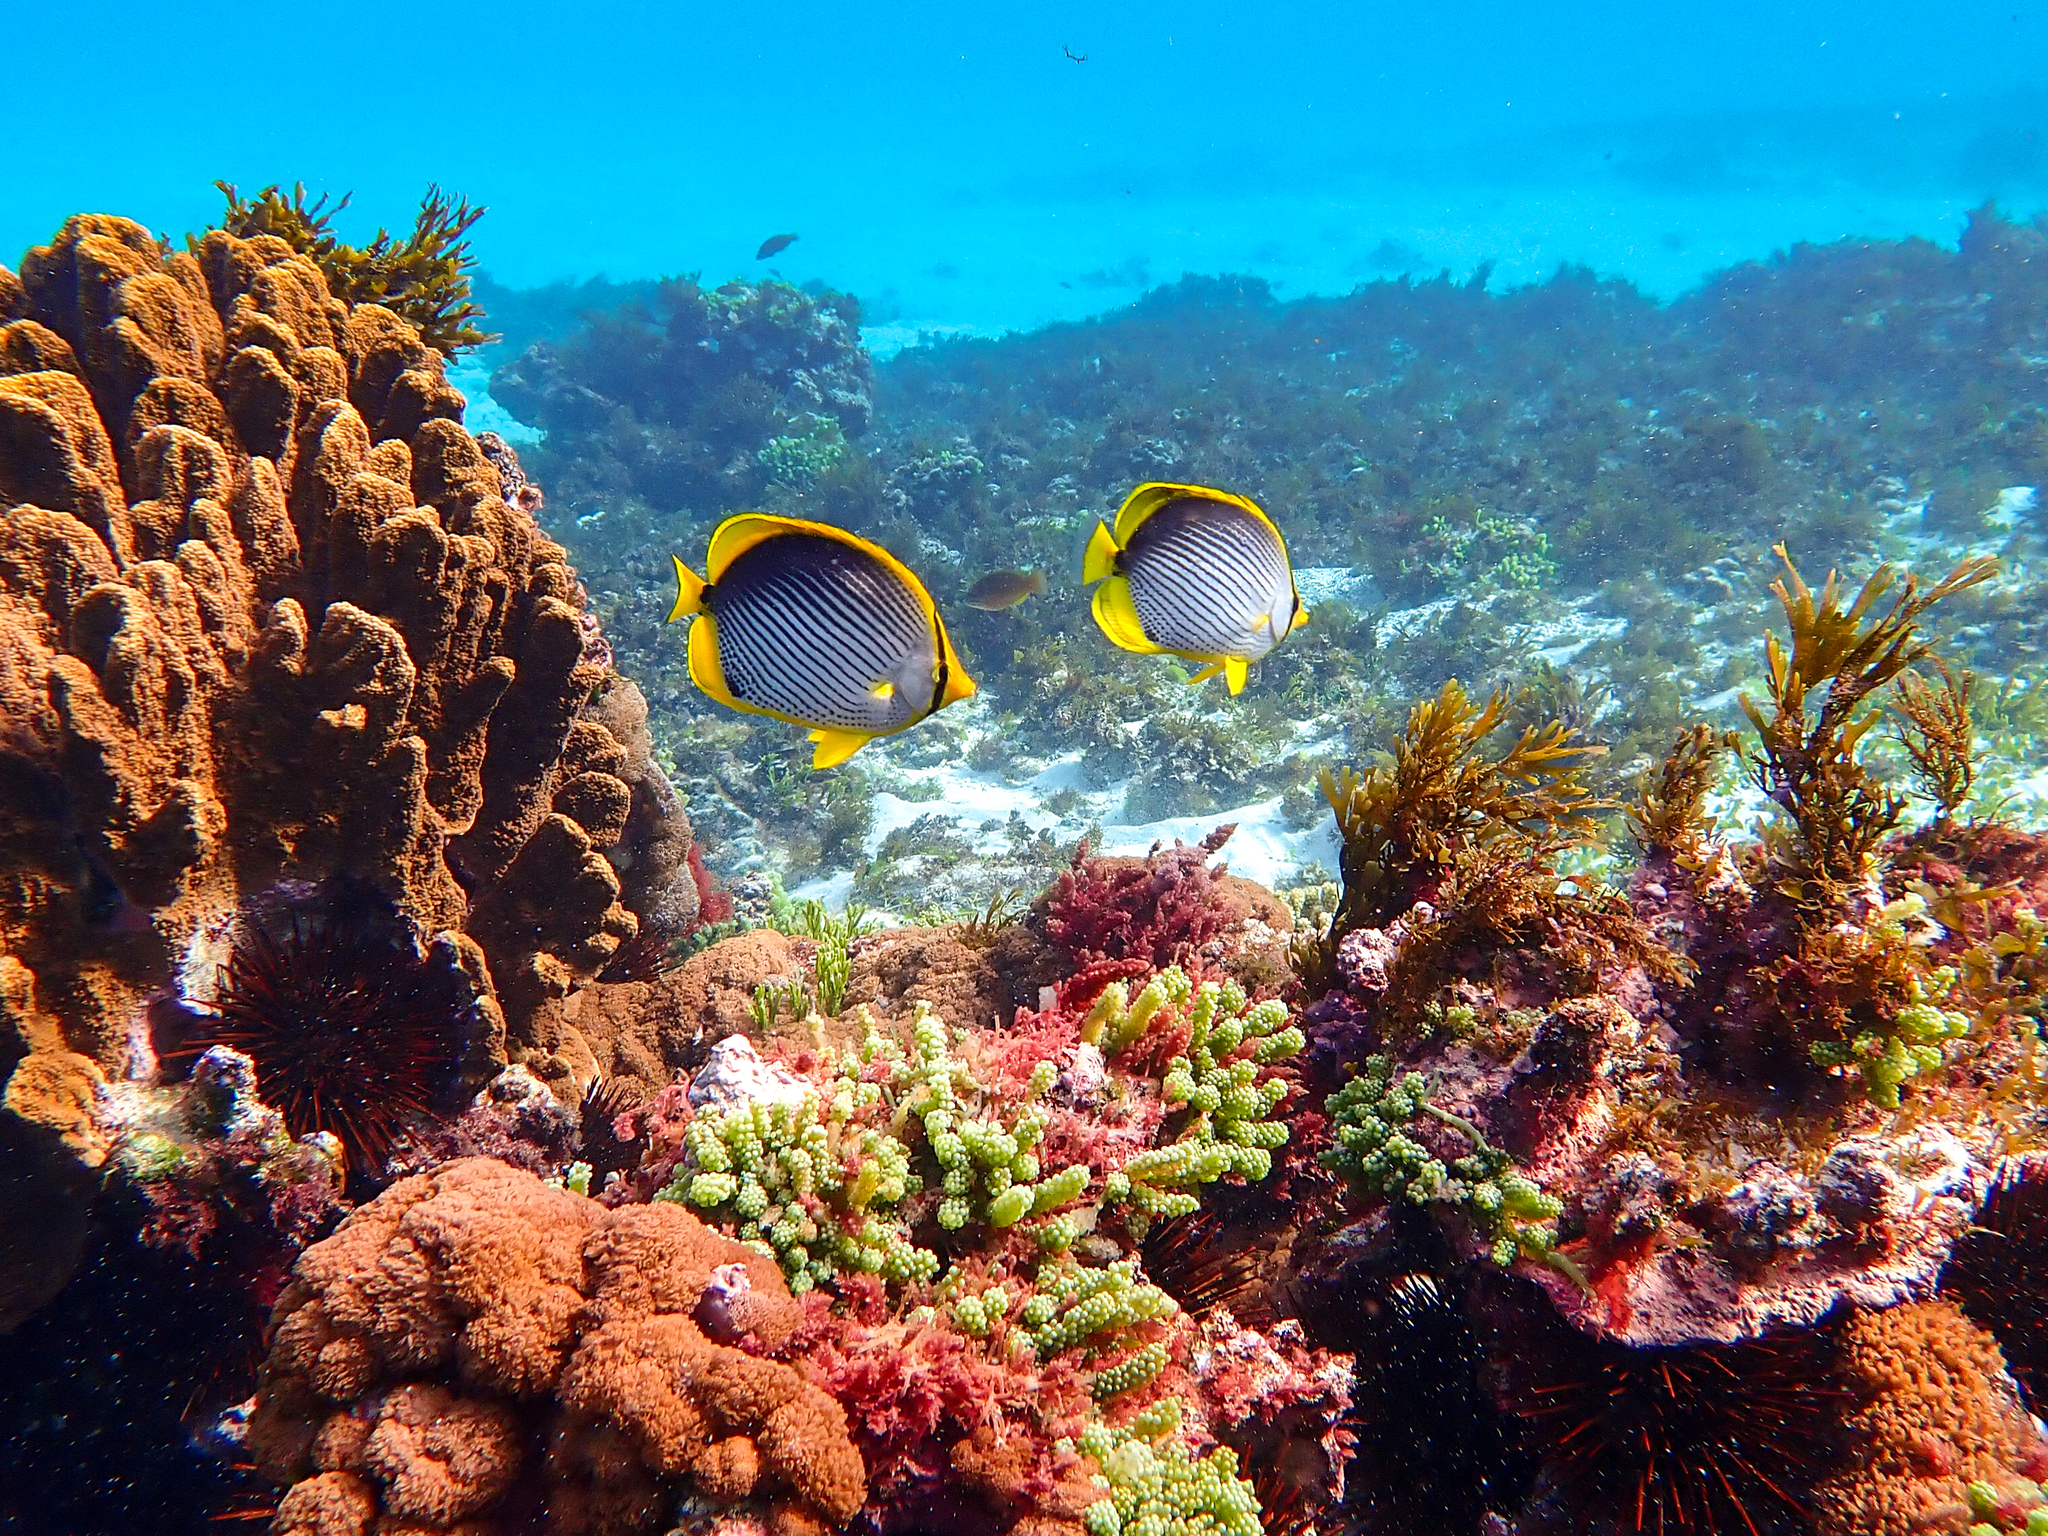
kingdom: Animalia
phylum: Chordata
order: Perciformes
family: Chaetodontidae
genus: Chaetodon
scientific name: Chaetodon melannotus
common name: Blackback butterflyfish
